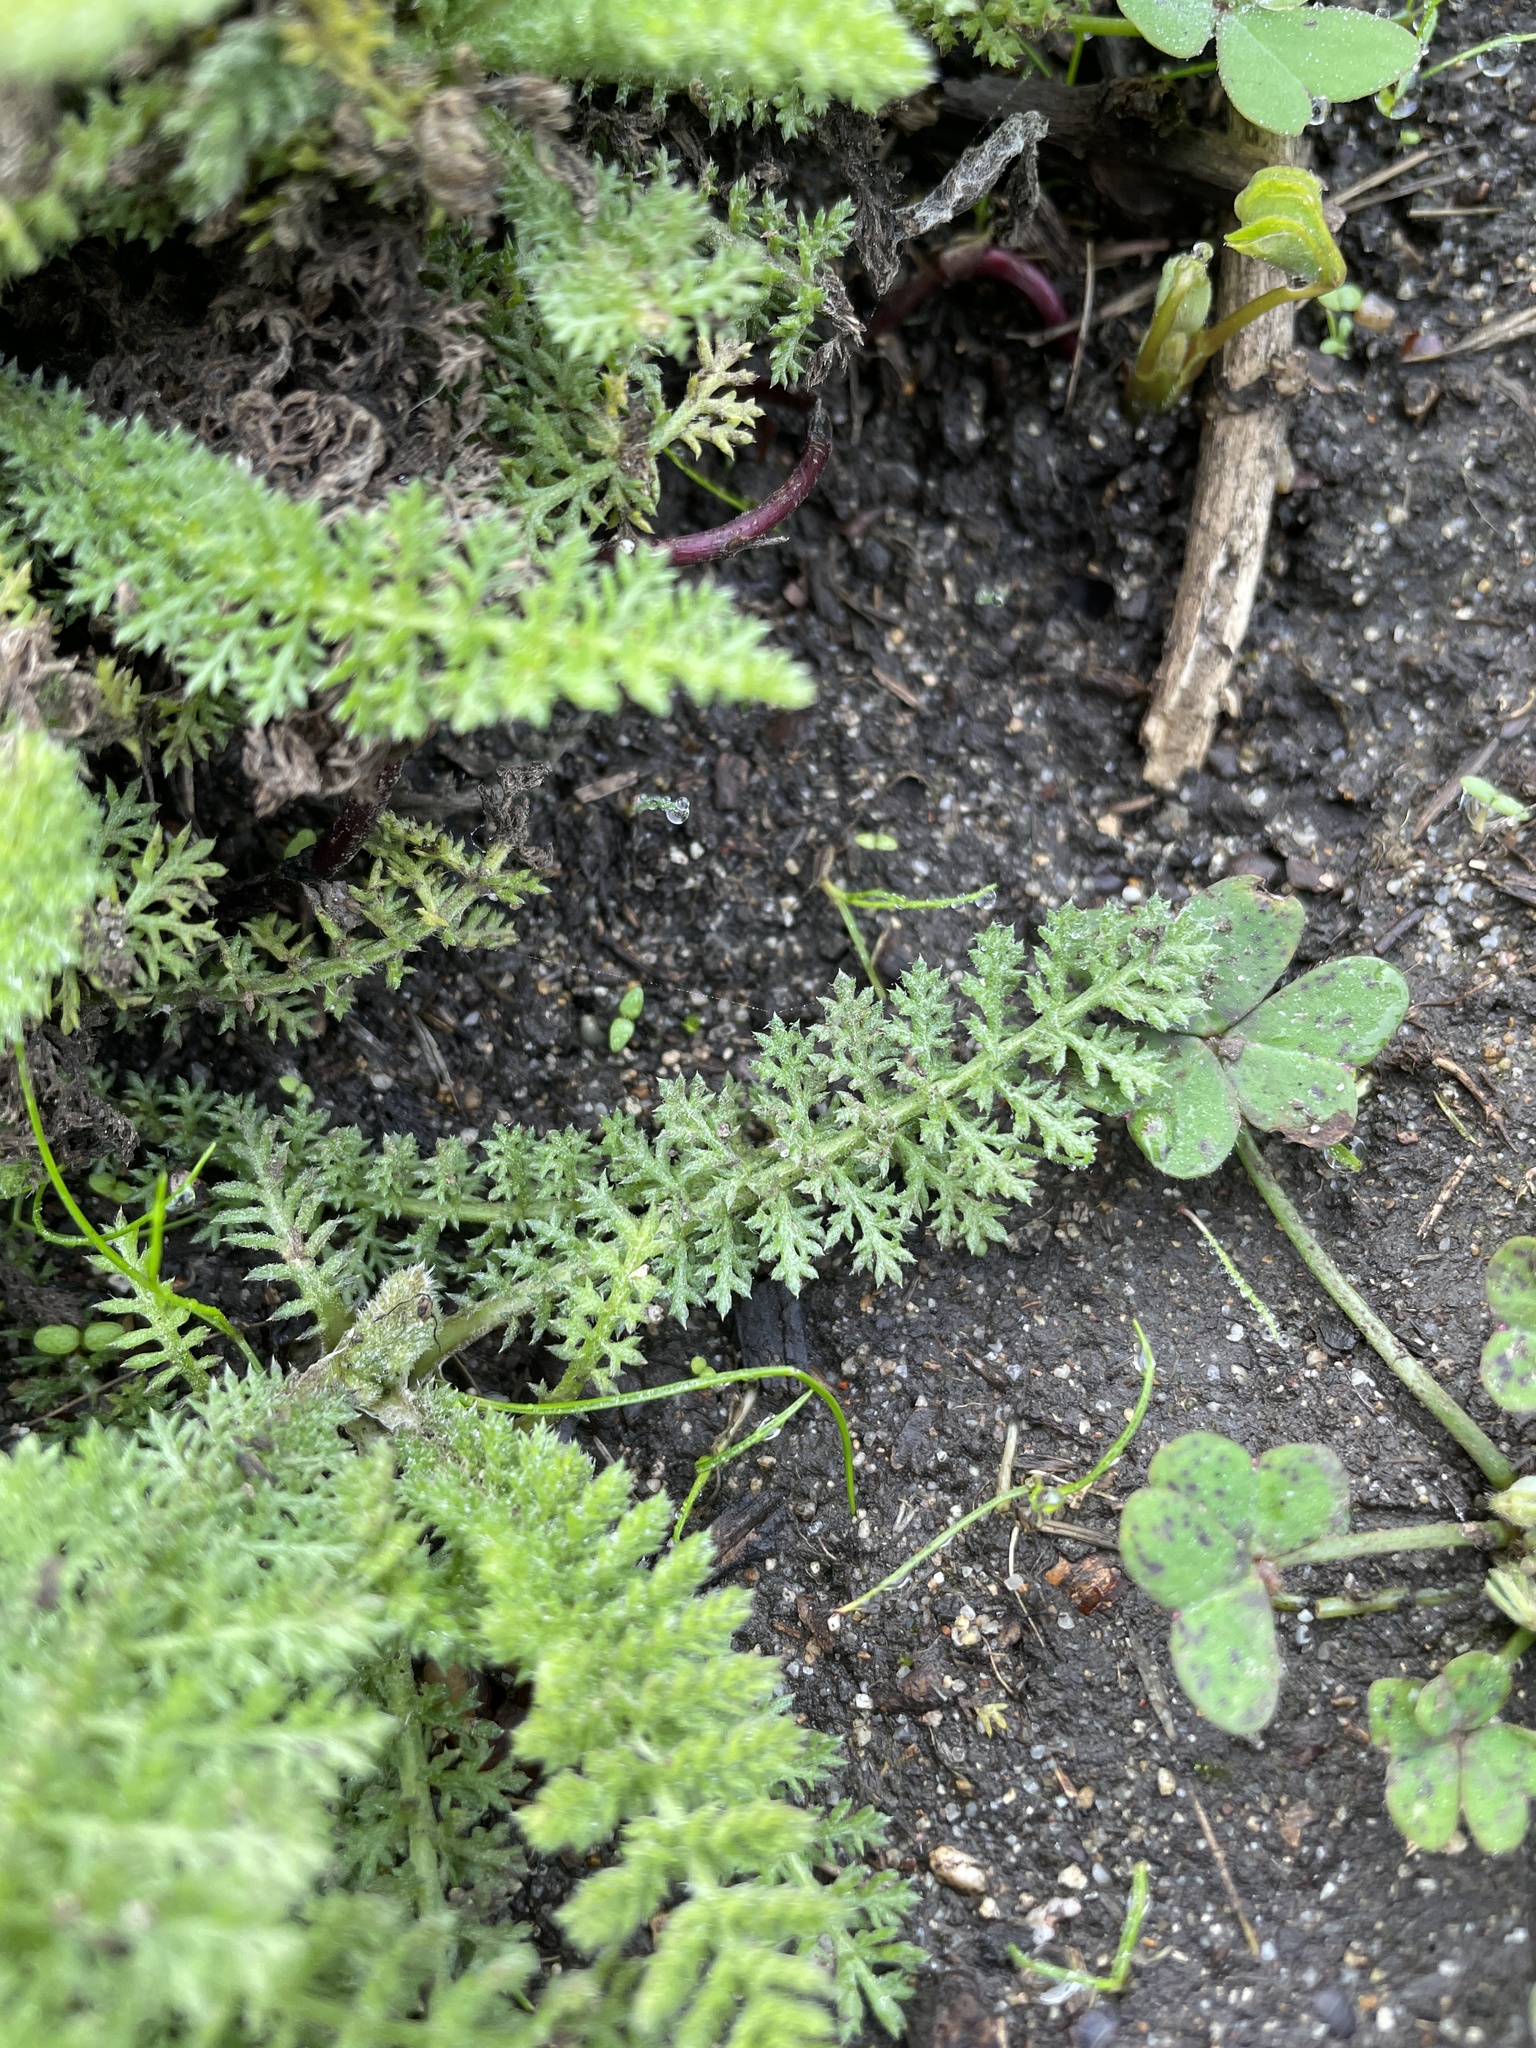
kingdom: Plantae
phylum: Tracheophyta
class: Magnoliopsida
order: Asterales
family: Asteraceae
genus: Achillea
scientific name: Achillea millefolium
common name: Yarrow
